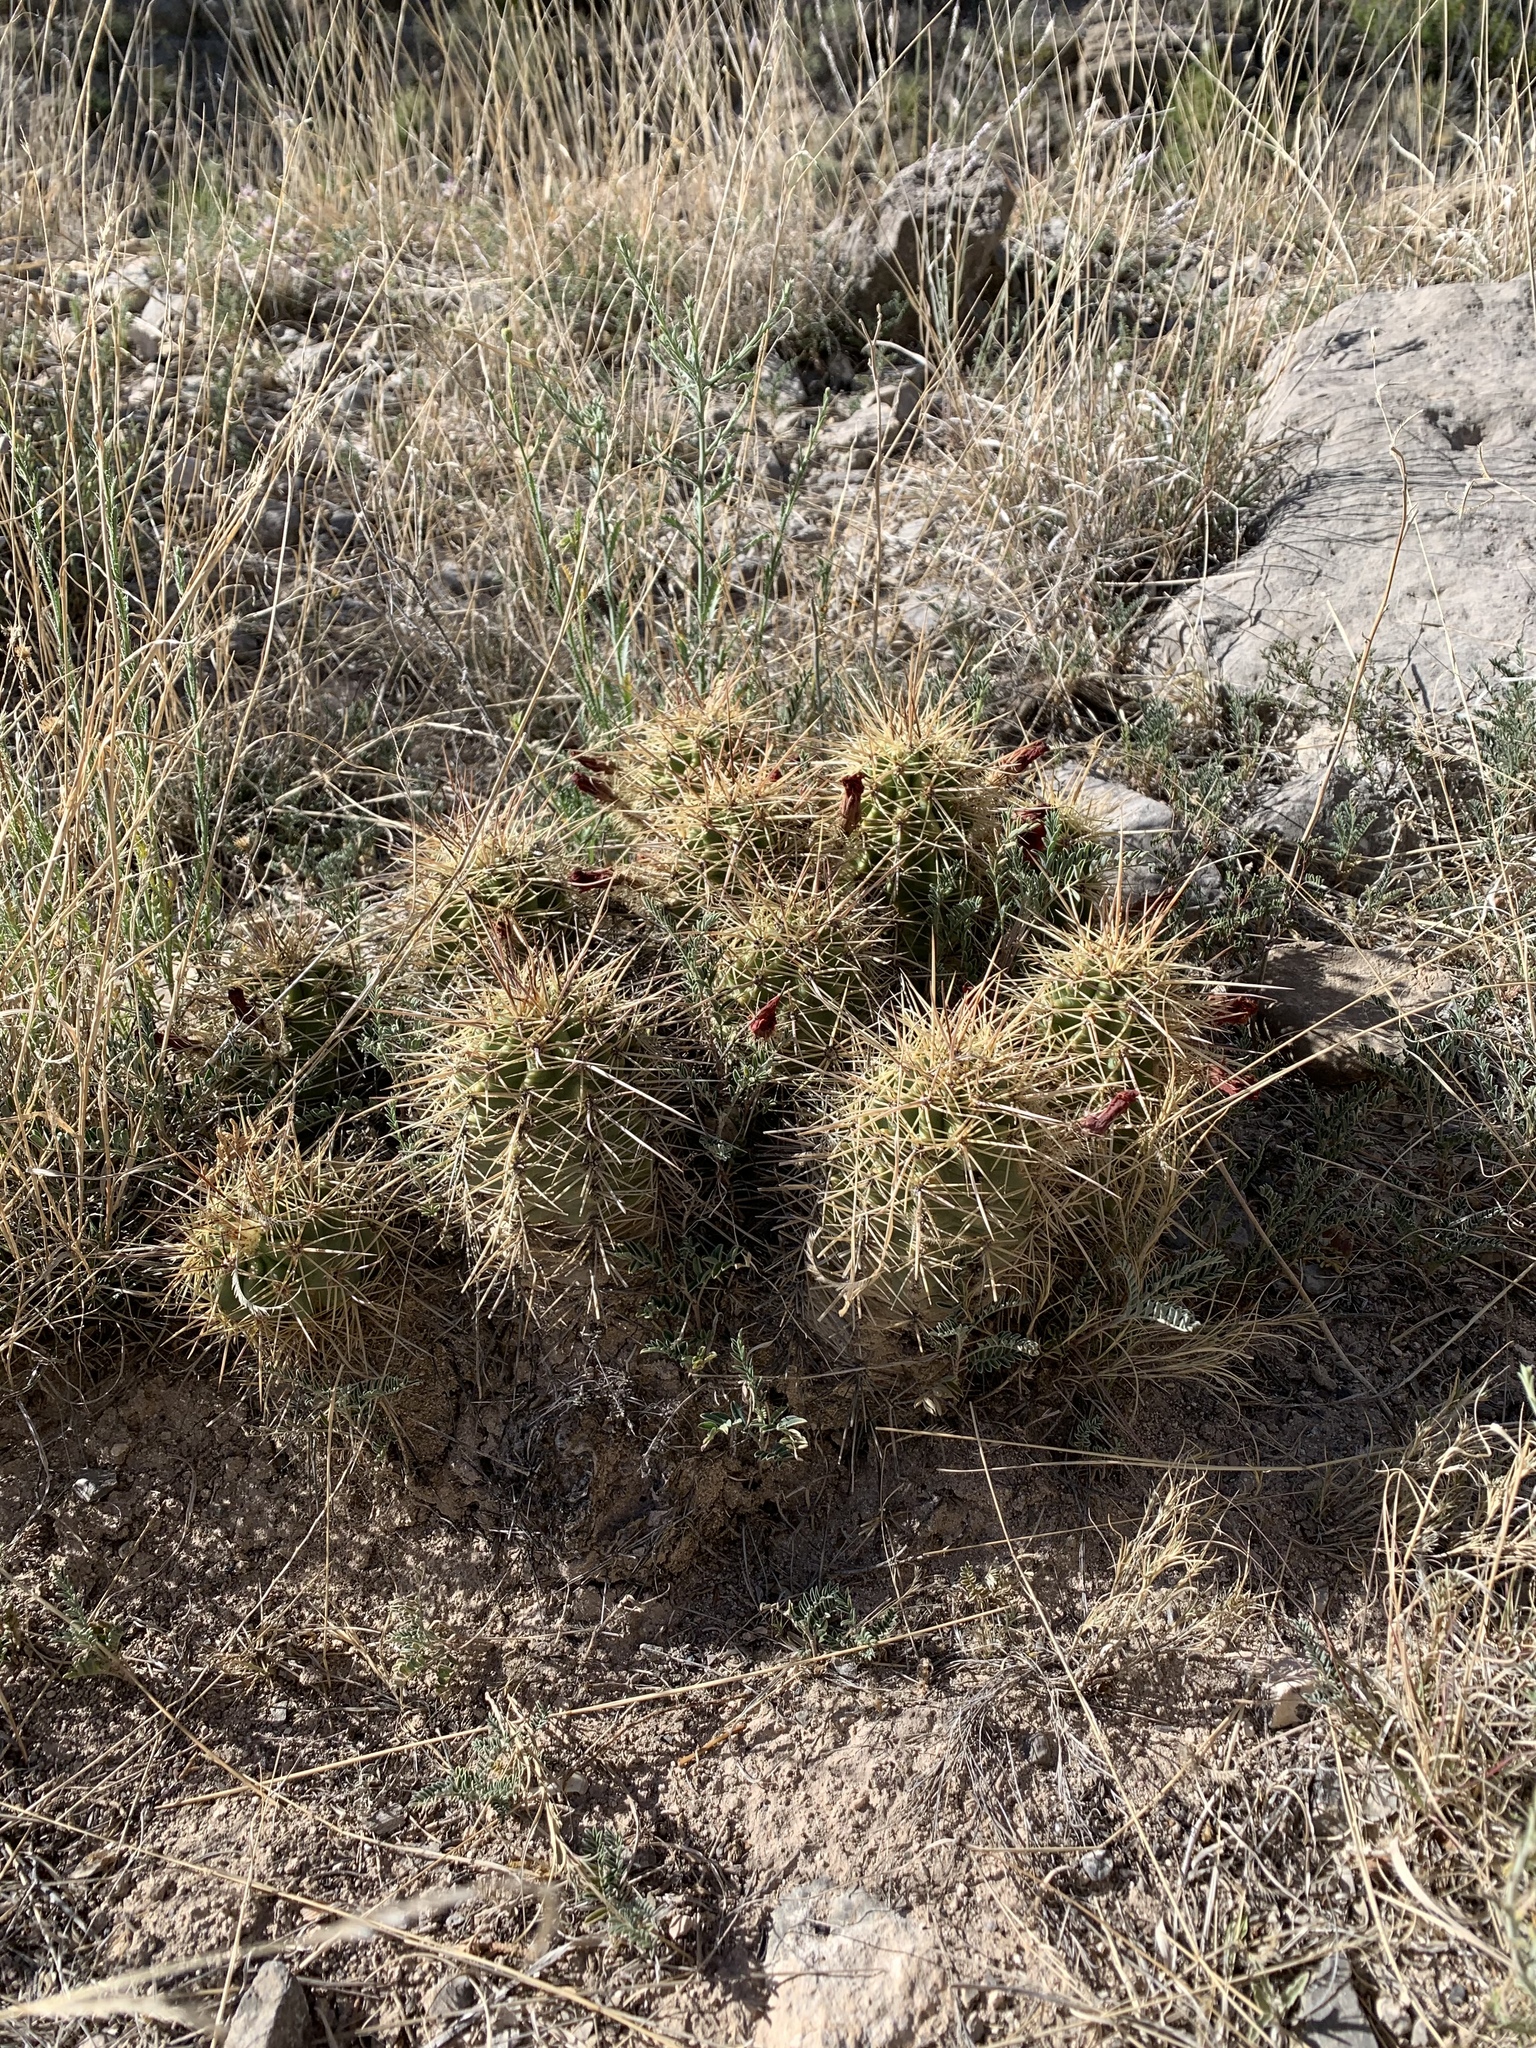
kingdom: Plantae
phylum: Tracheophyta
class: Magnoliopsida
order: Caryophyllales
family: Cactaceae
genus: Echinocereus
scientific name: Echinocereus coccineus
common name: Scarlet hedgehog cactus
